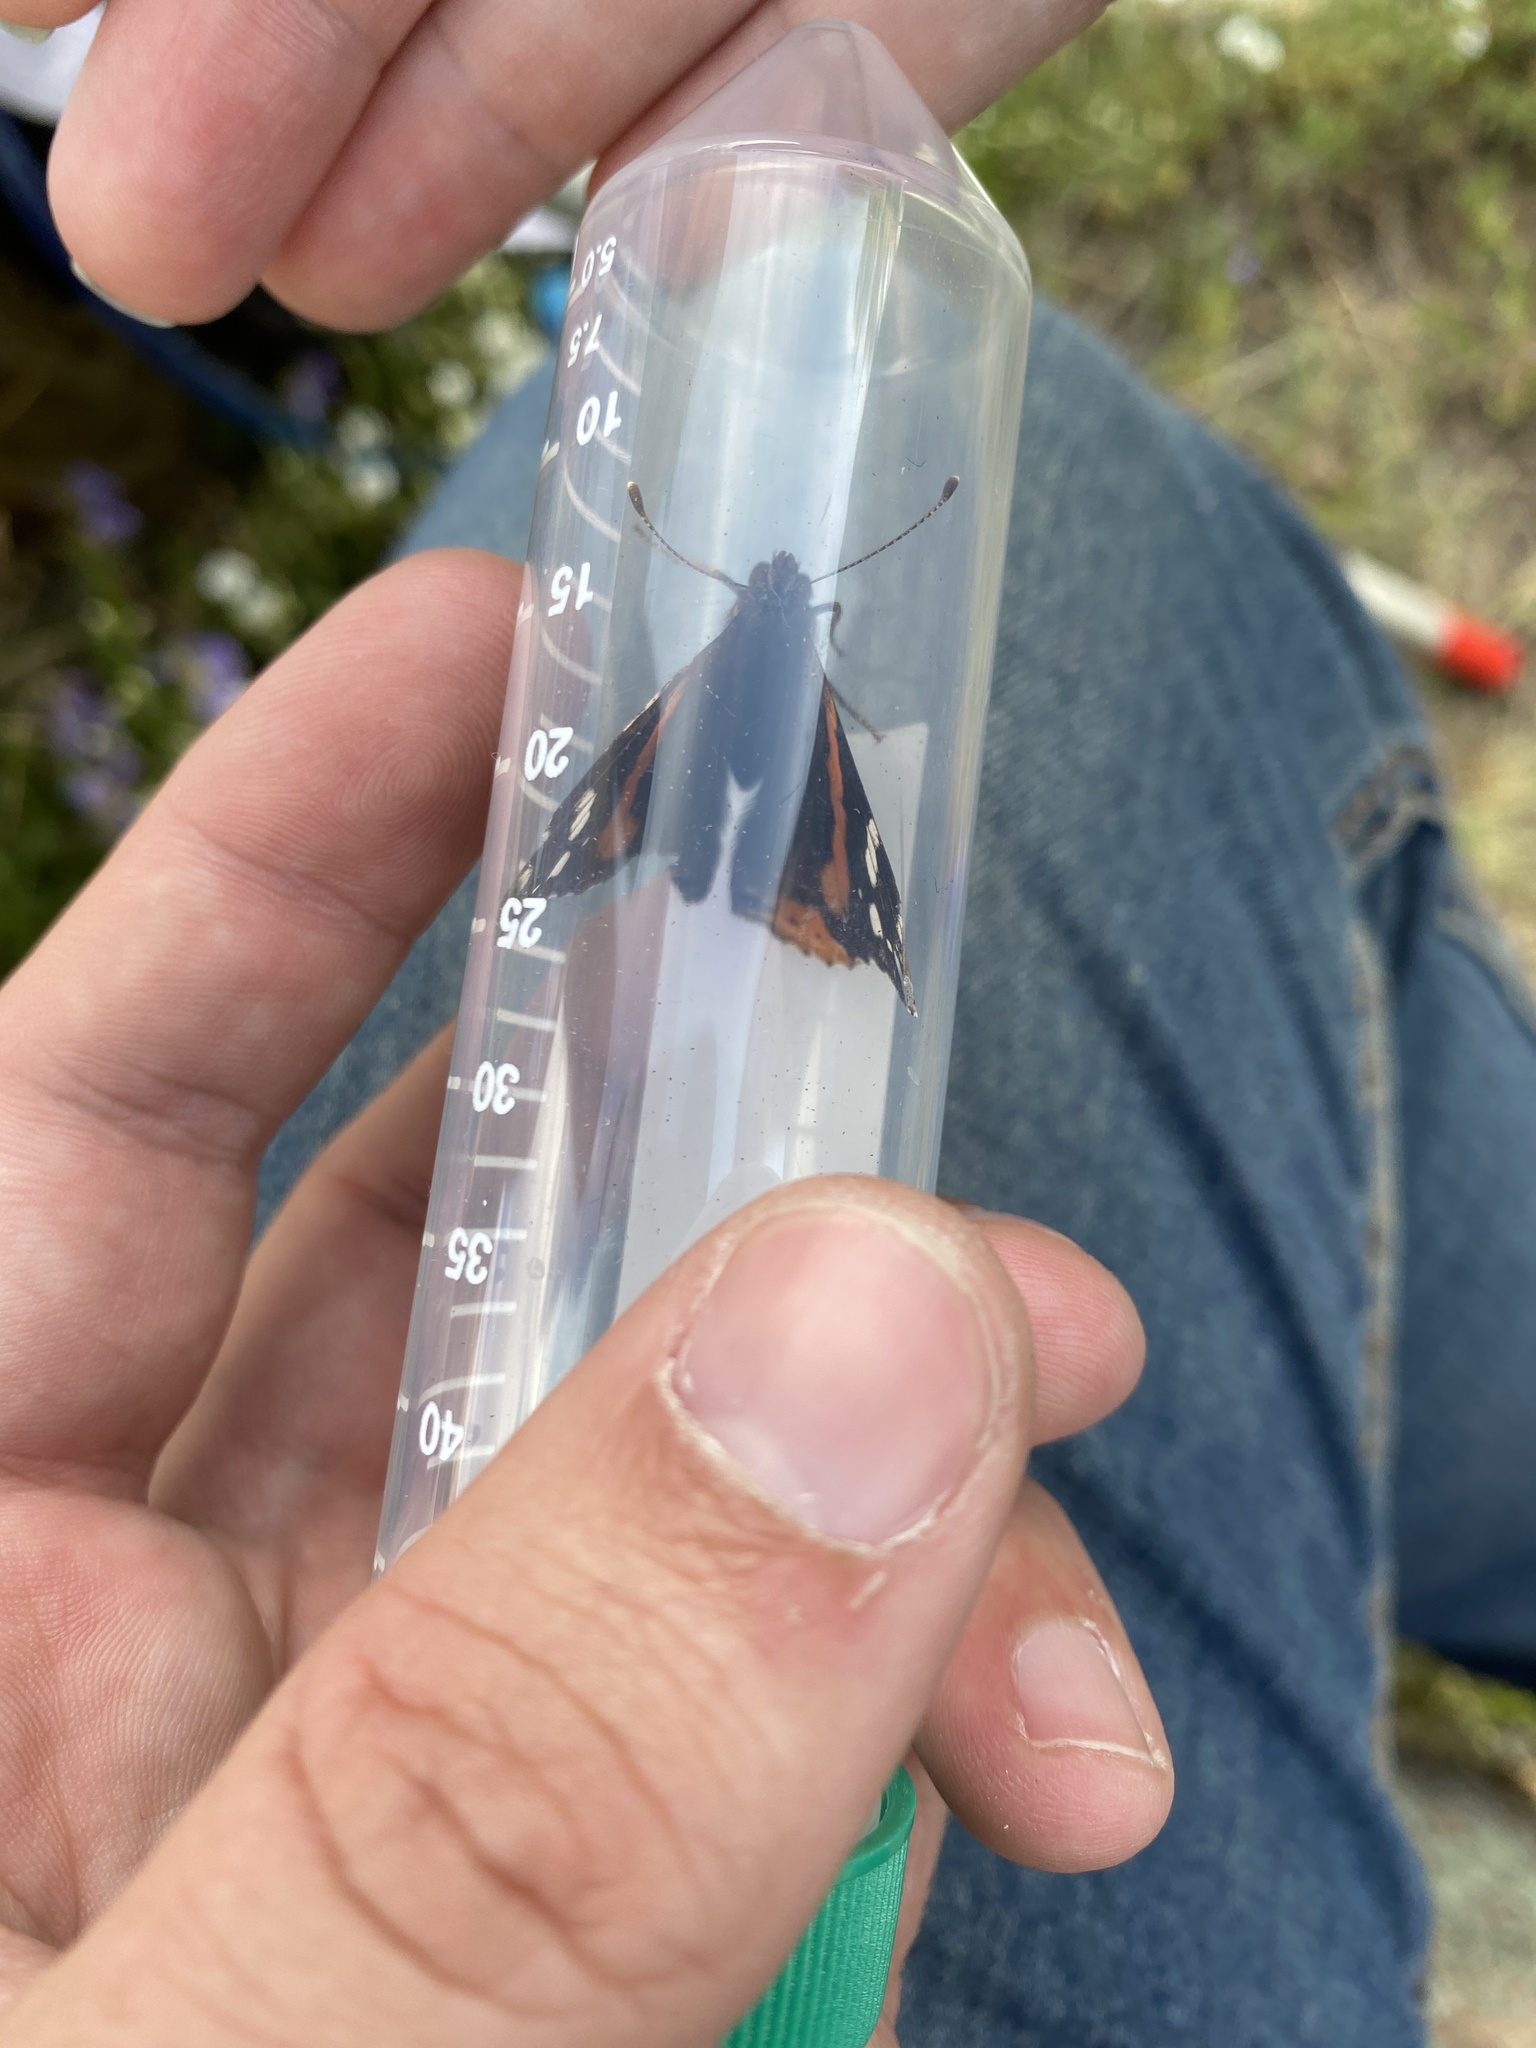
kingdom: Animalia
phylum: Arthropoda
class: Insecta
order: Lepidoptera
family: Nymphalidae
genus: Vanessa
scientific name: Vanessa atalanta
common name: Red admiral
